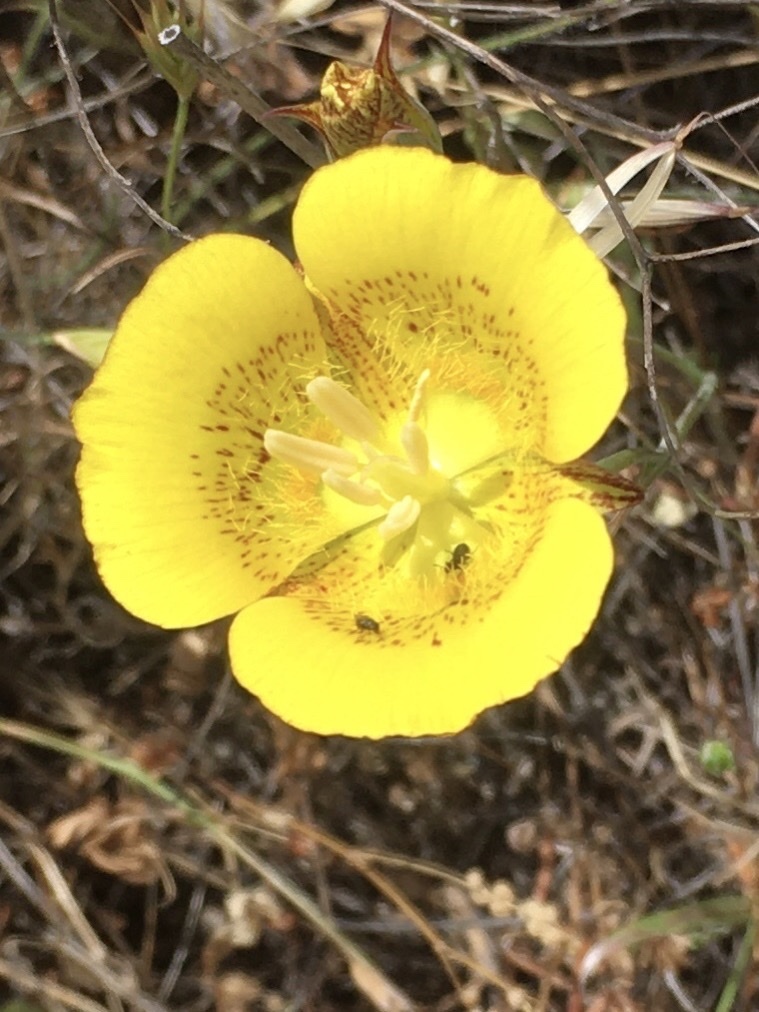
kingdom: Plantae
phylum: Tracheophyta
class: Liliopsida
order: Liliales
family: Liliaceae
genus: Calochortus
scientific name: Calochortus luteus
